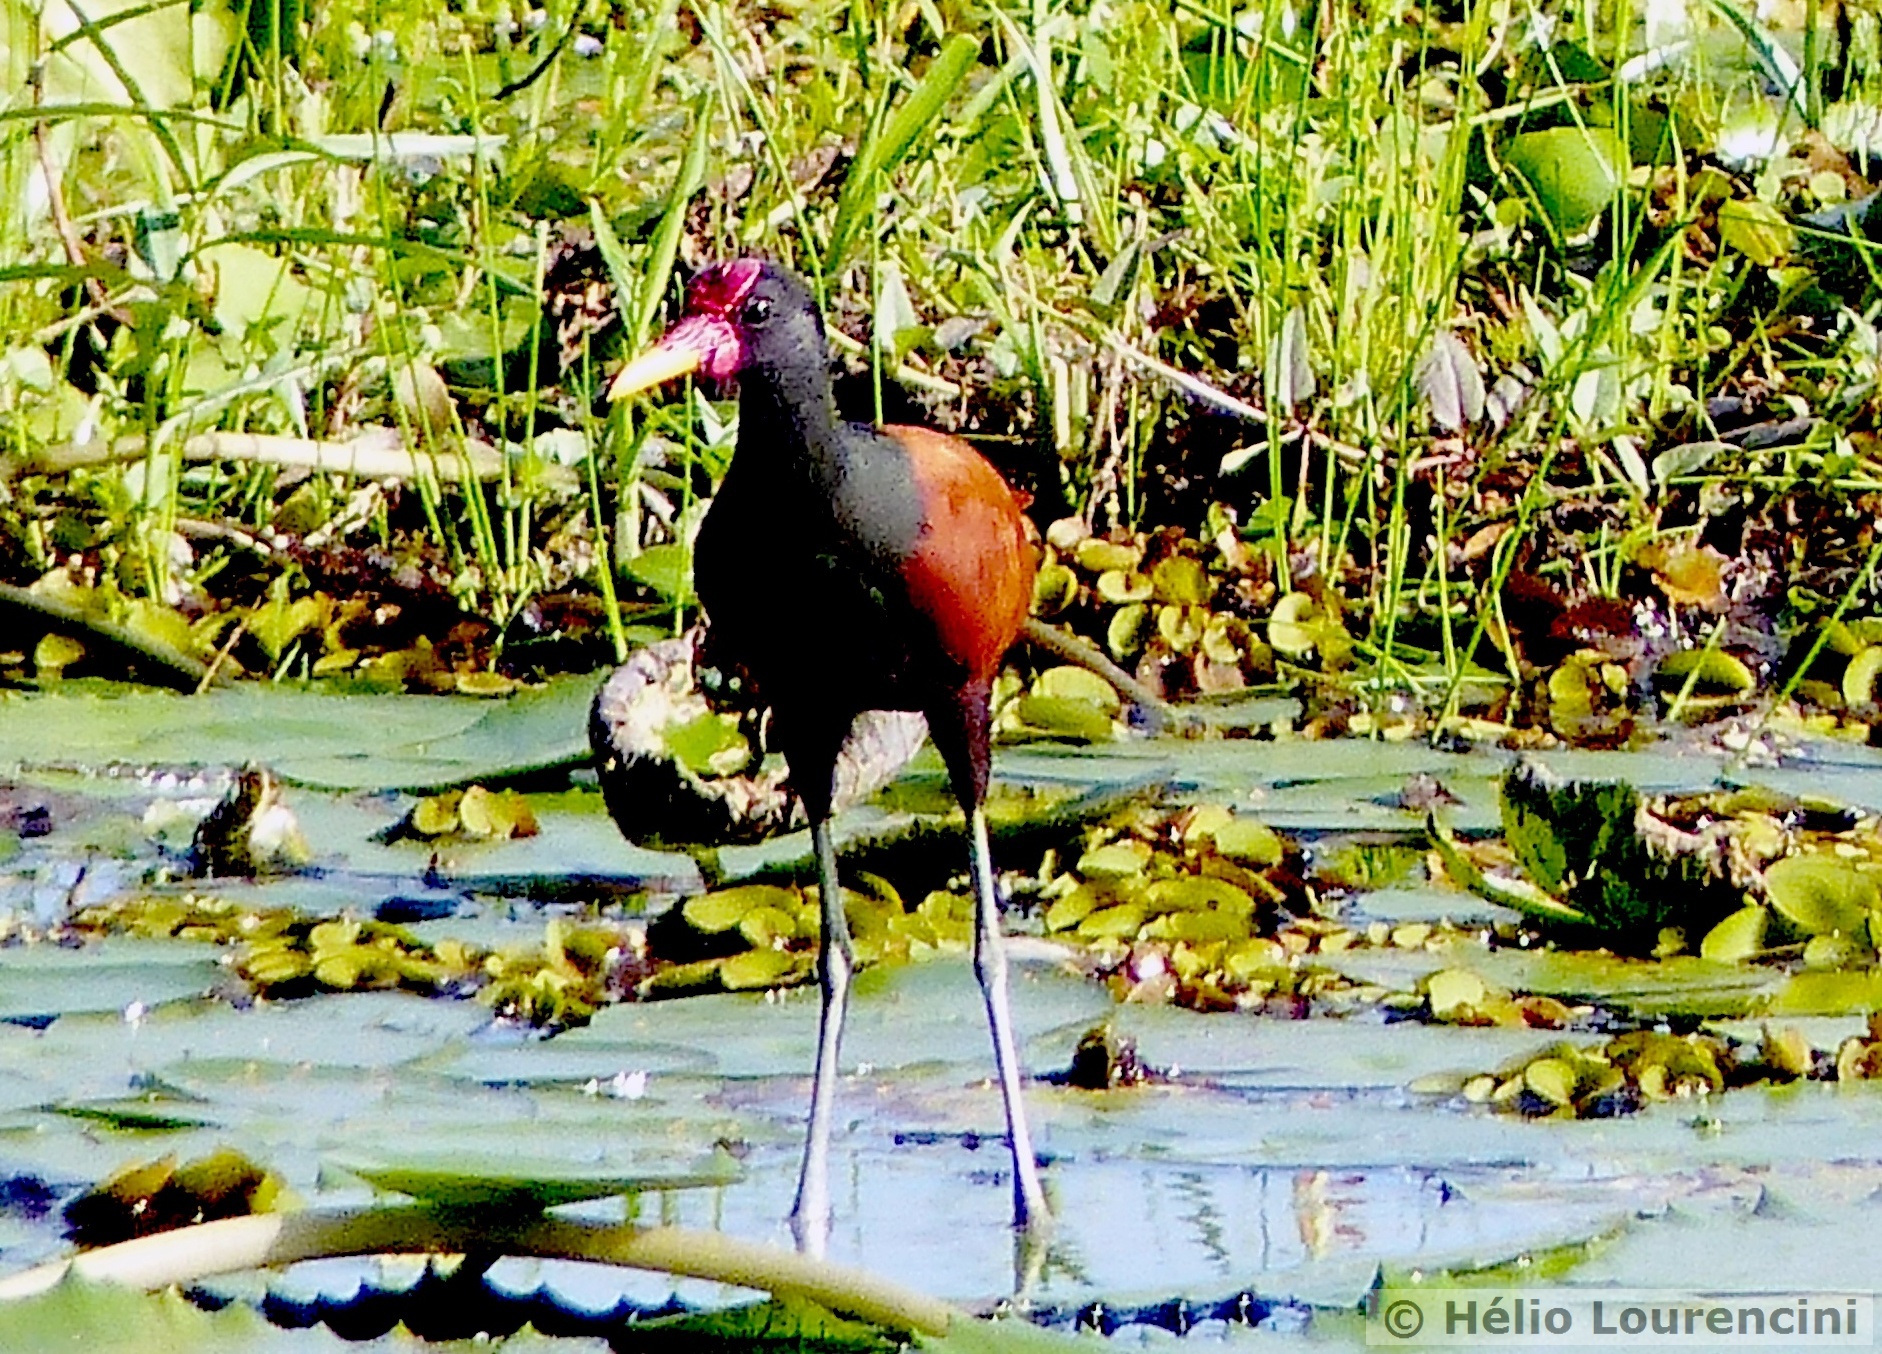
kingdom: Animalia
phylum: Chordata
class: Aves
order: Charadriiformes
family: Jacanidae
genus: Jacana
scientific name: Jacana jacana
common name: Wattled jacana
